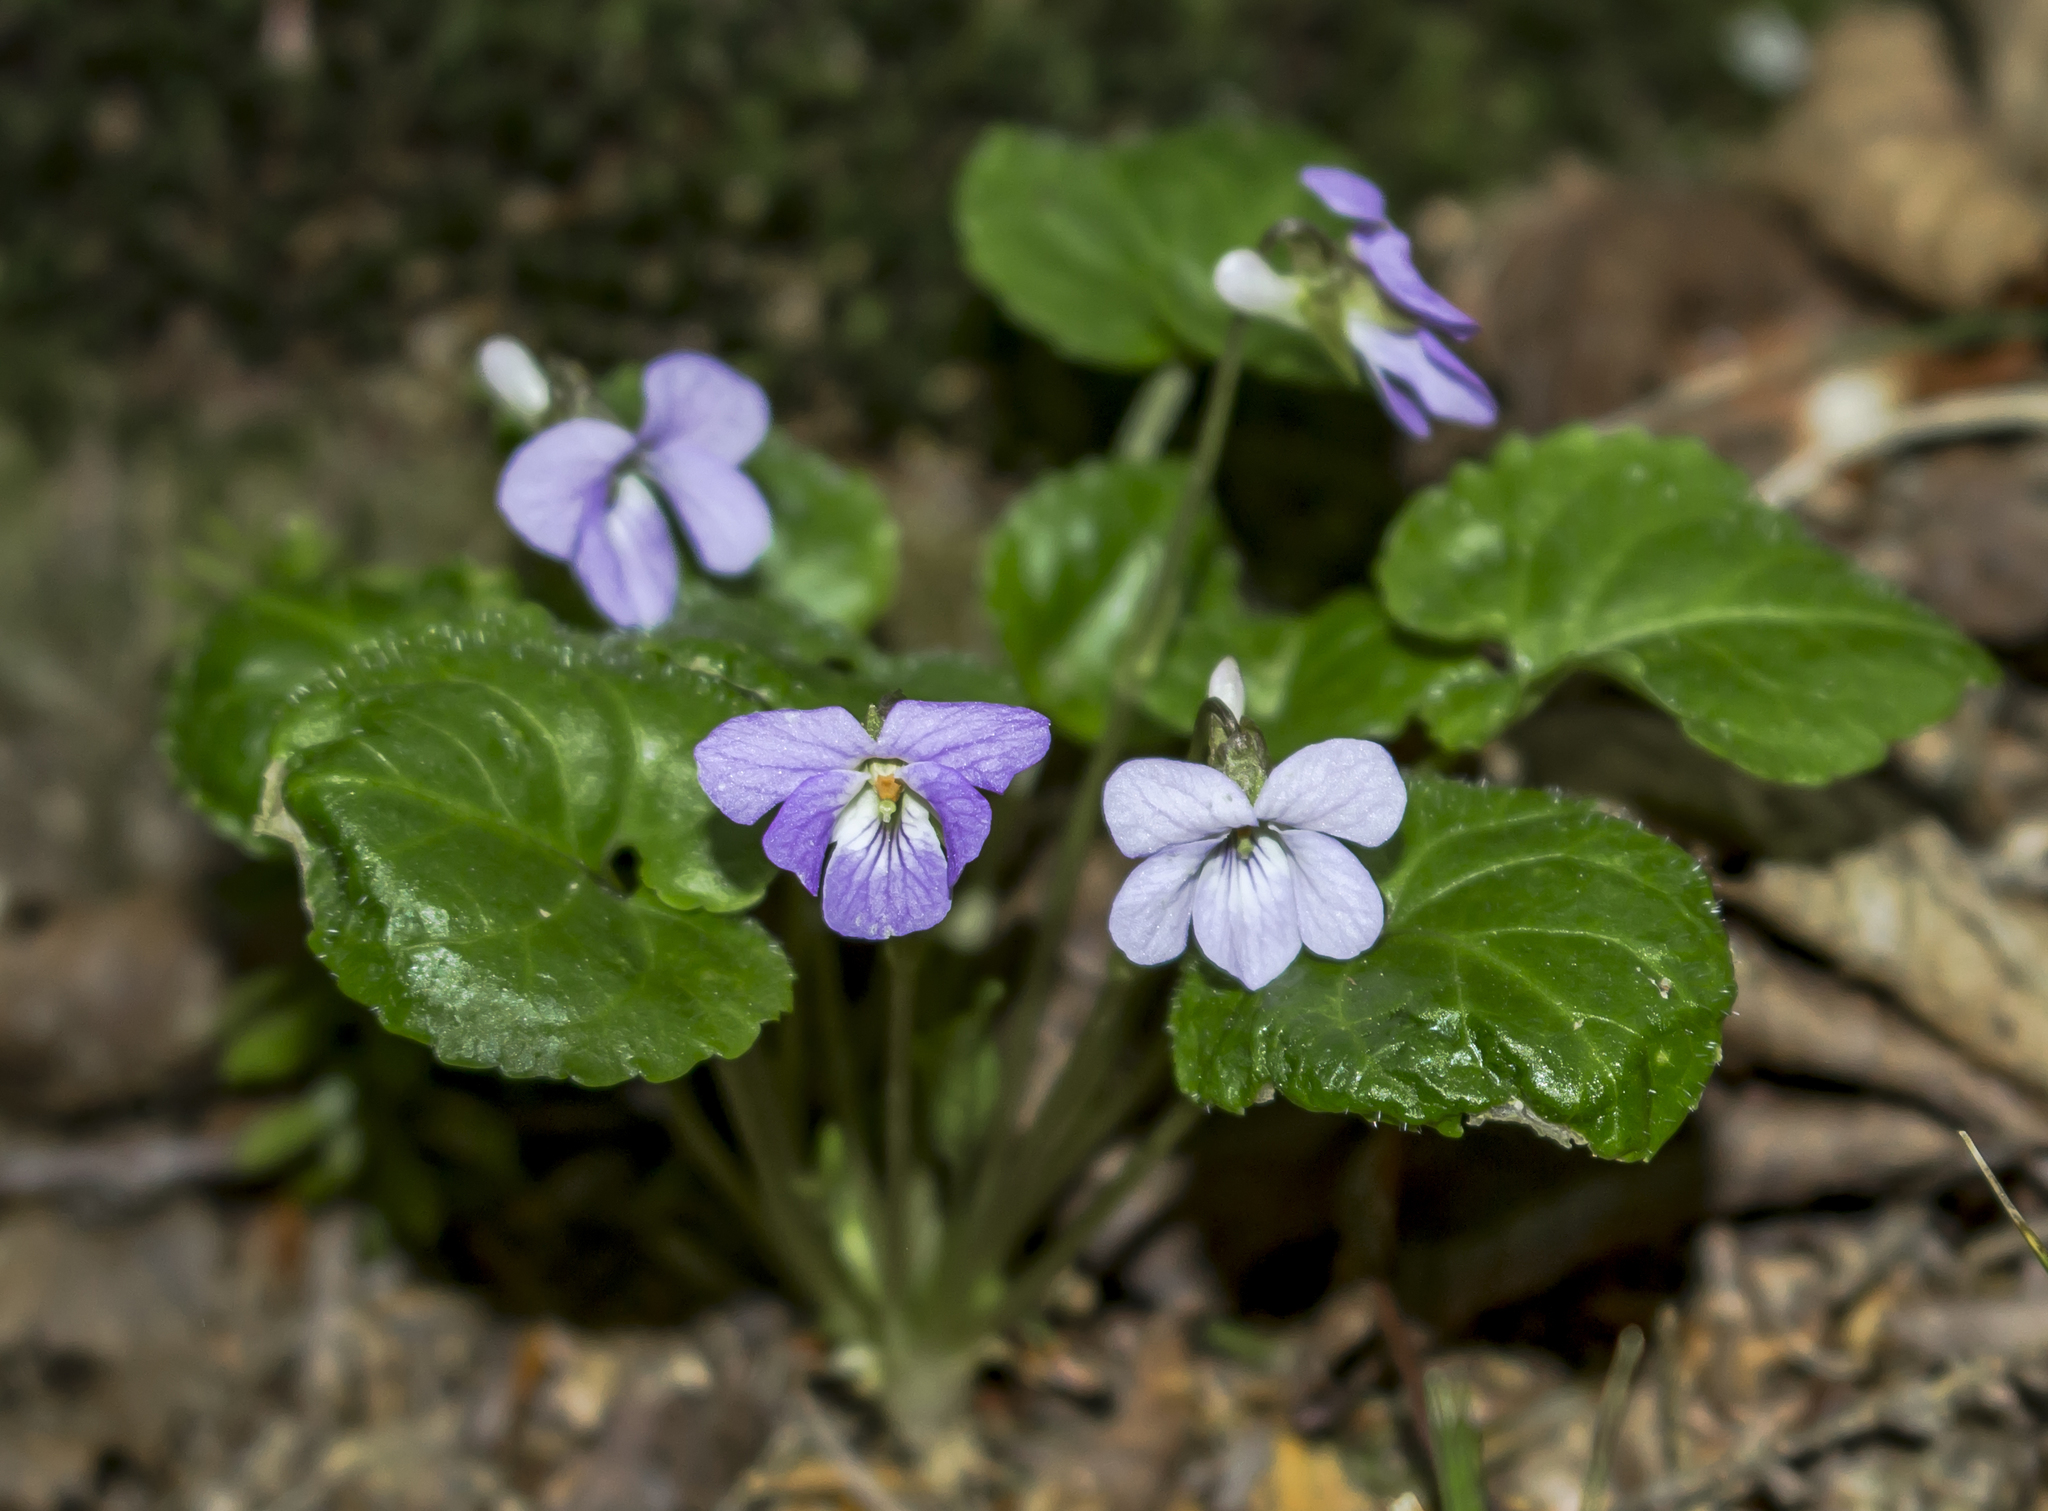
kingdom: Plantae
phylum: Tracheophyta
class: Magnoliopsida
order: Malpighiales
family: Violaceae
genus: Viola
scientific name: Viola selkirkii
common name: Selkirk's violet
